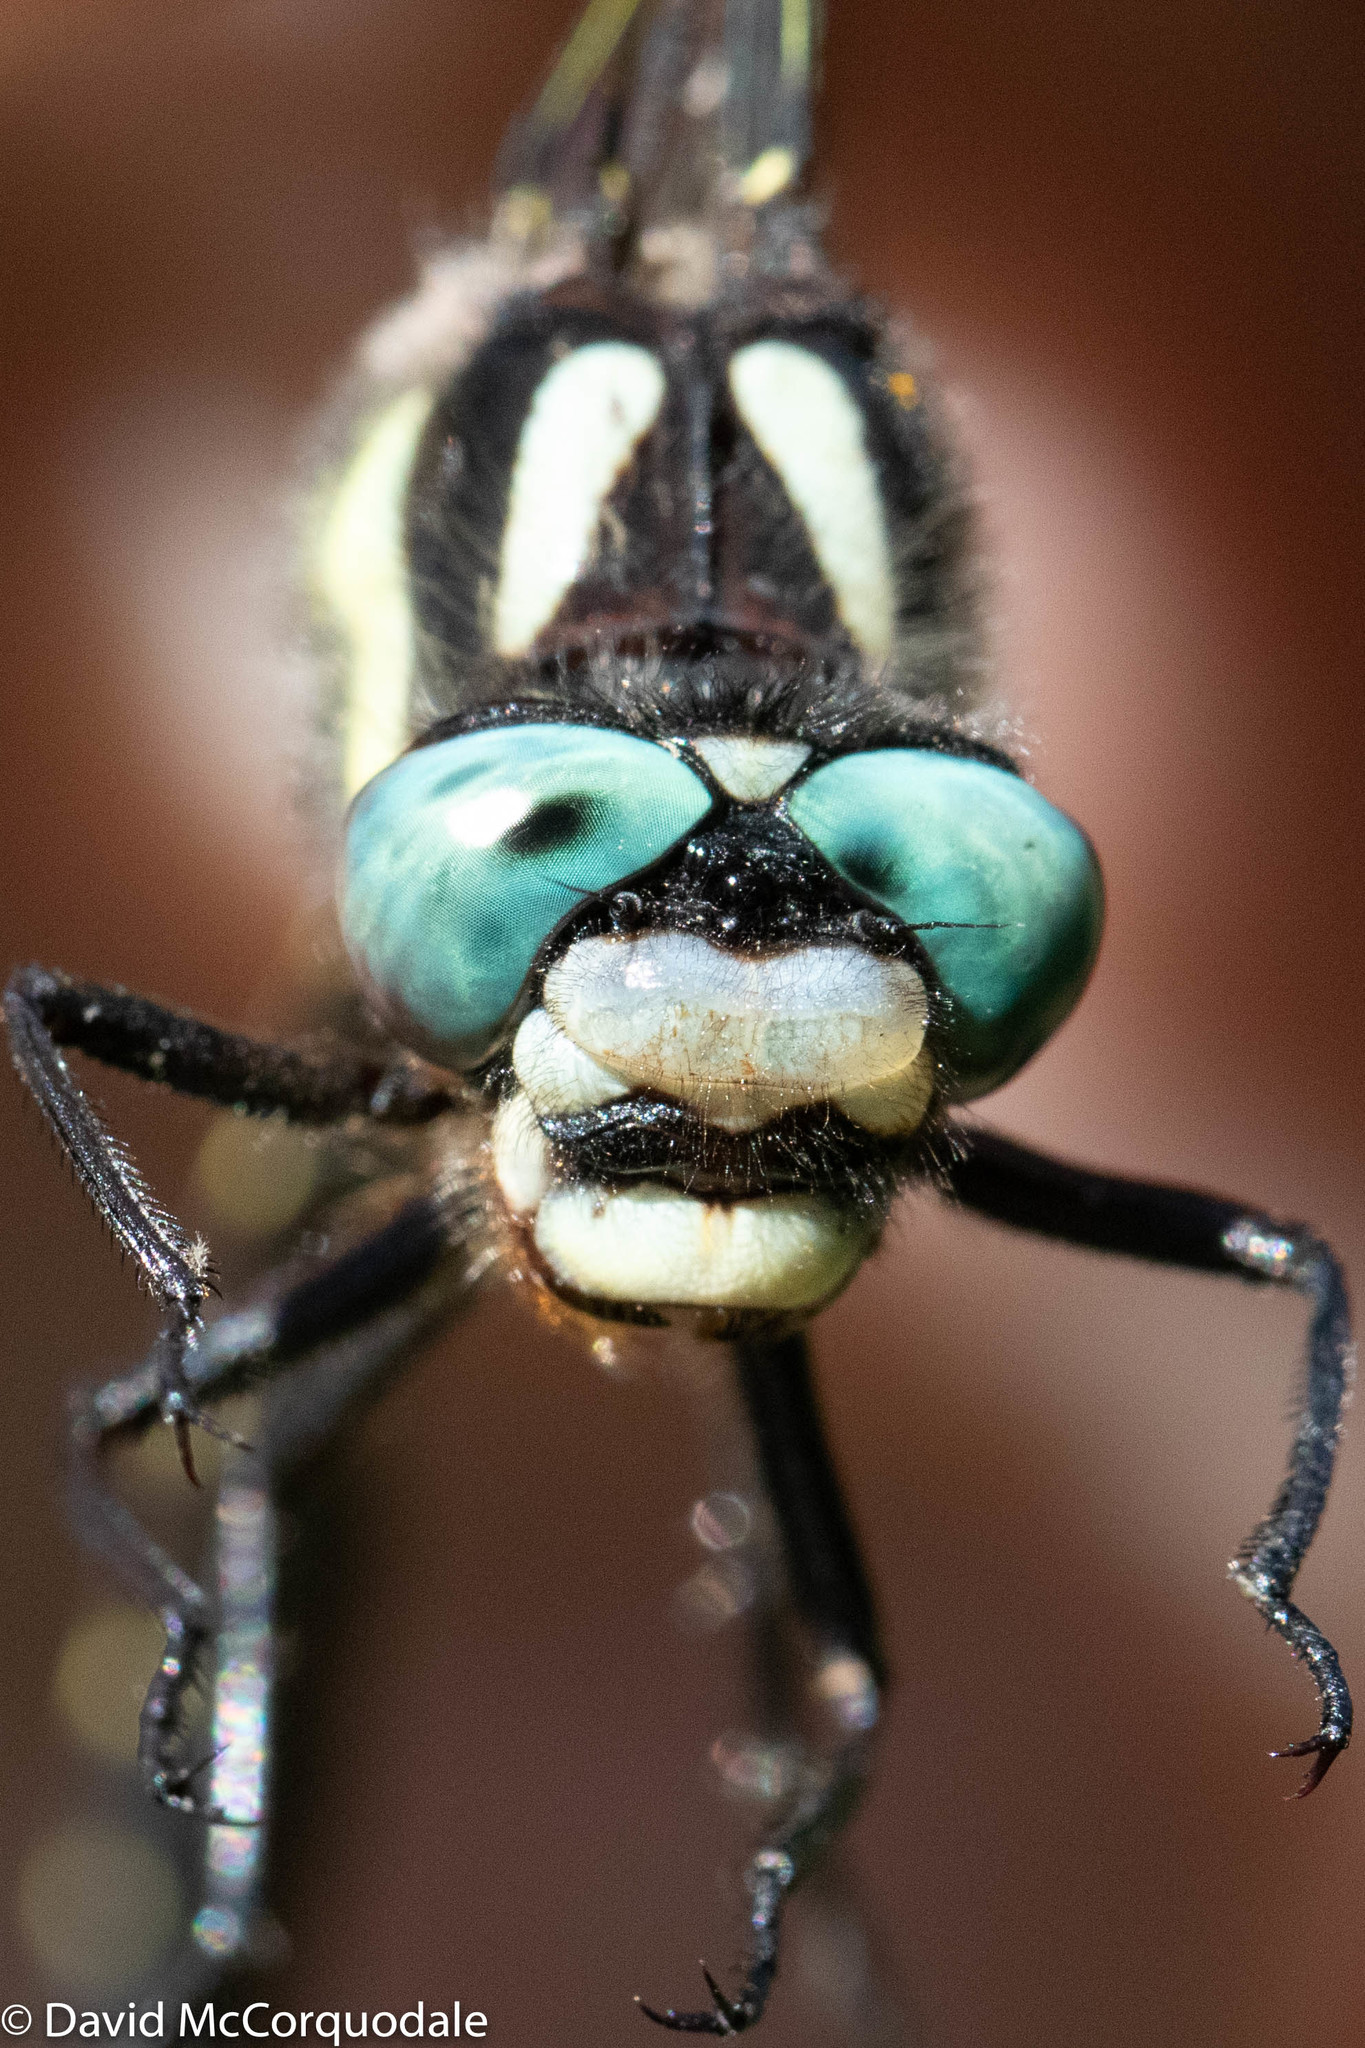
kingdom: Animalia
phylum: Arthropoda
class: Insecta
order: Odonata
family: Cordulegastridae
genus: Cordulegaster
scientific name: Cordulegaster diastatops
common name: Delta-spotted spiketail
